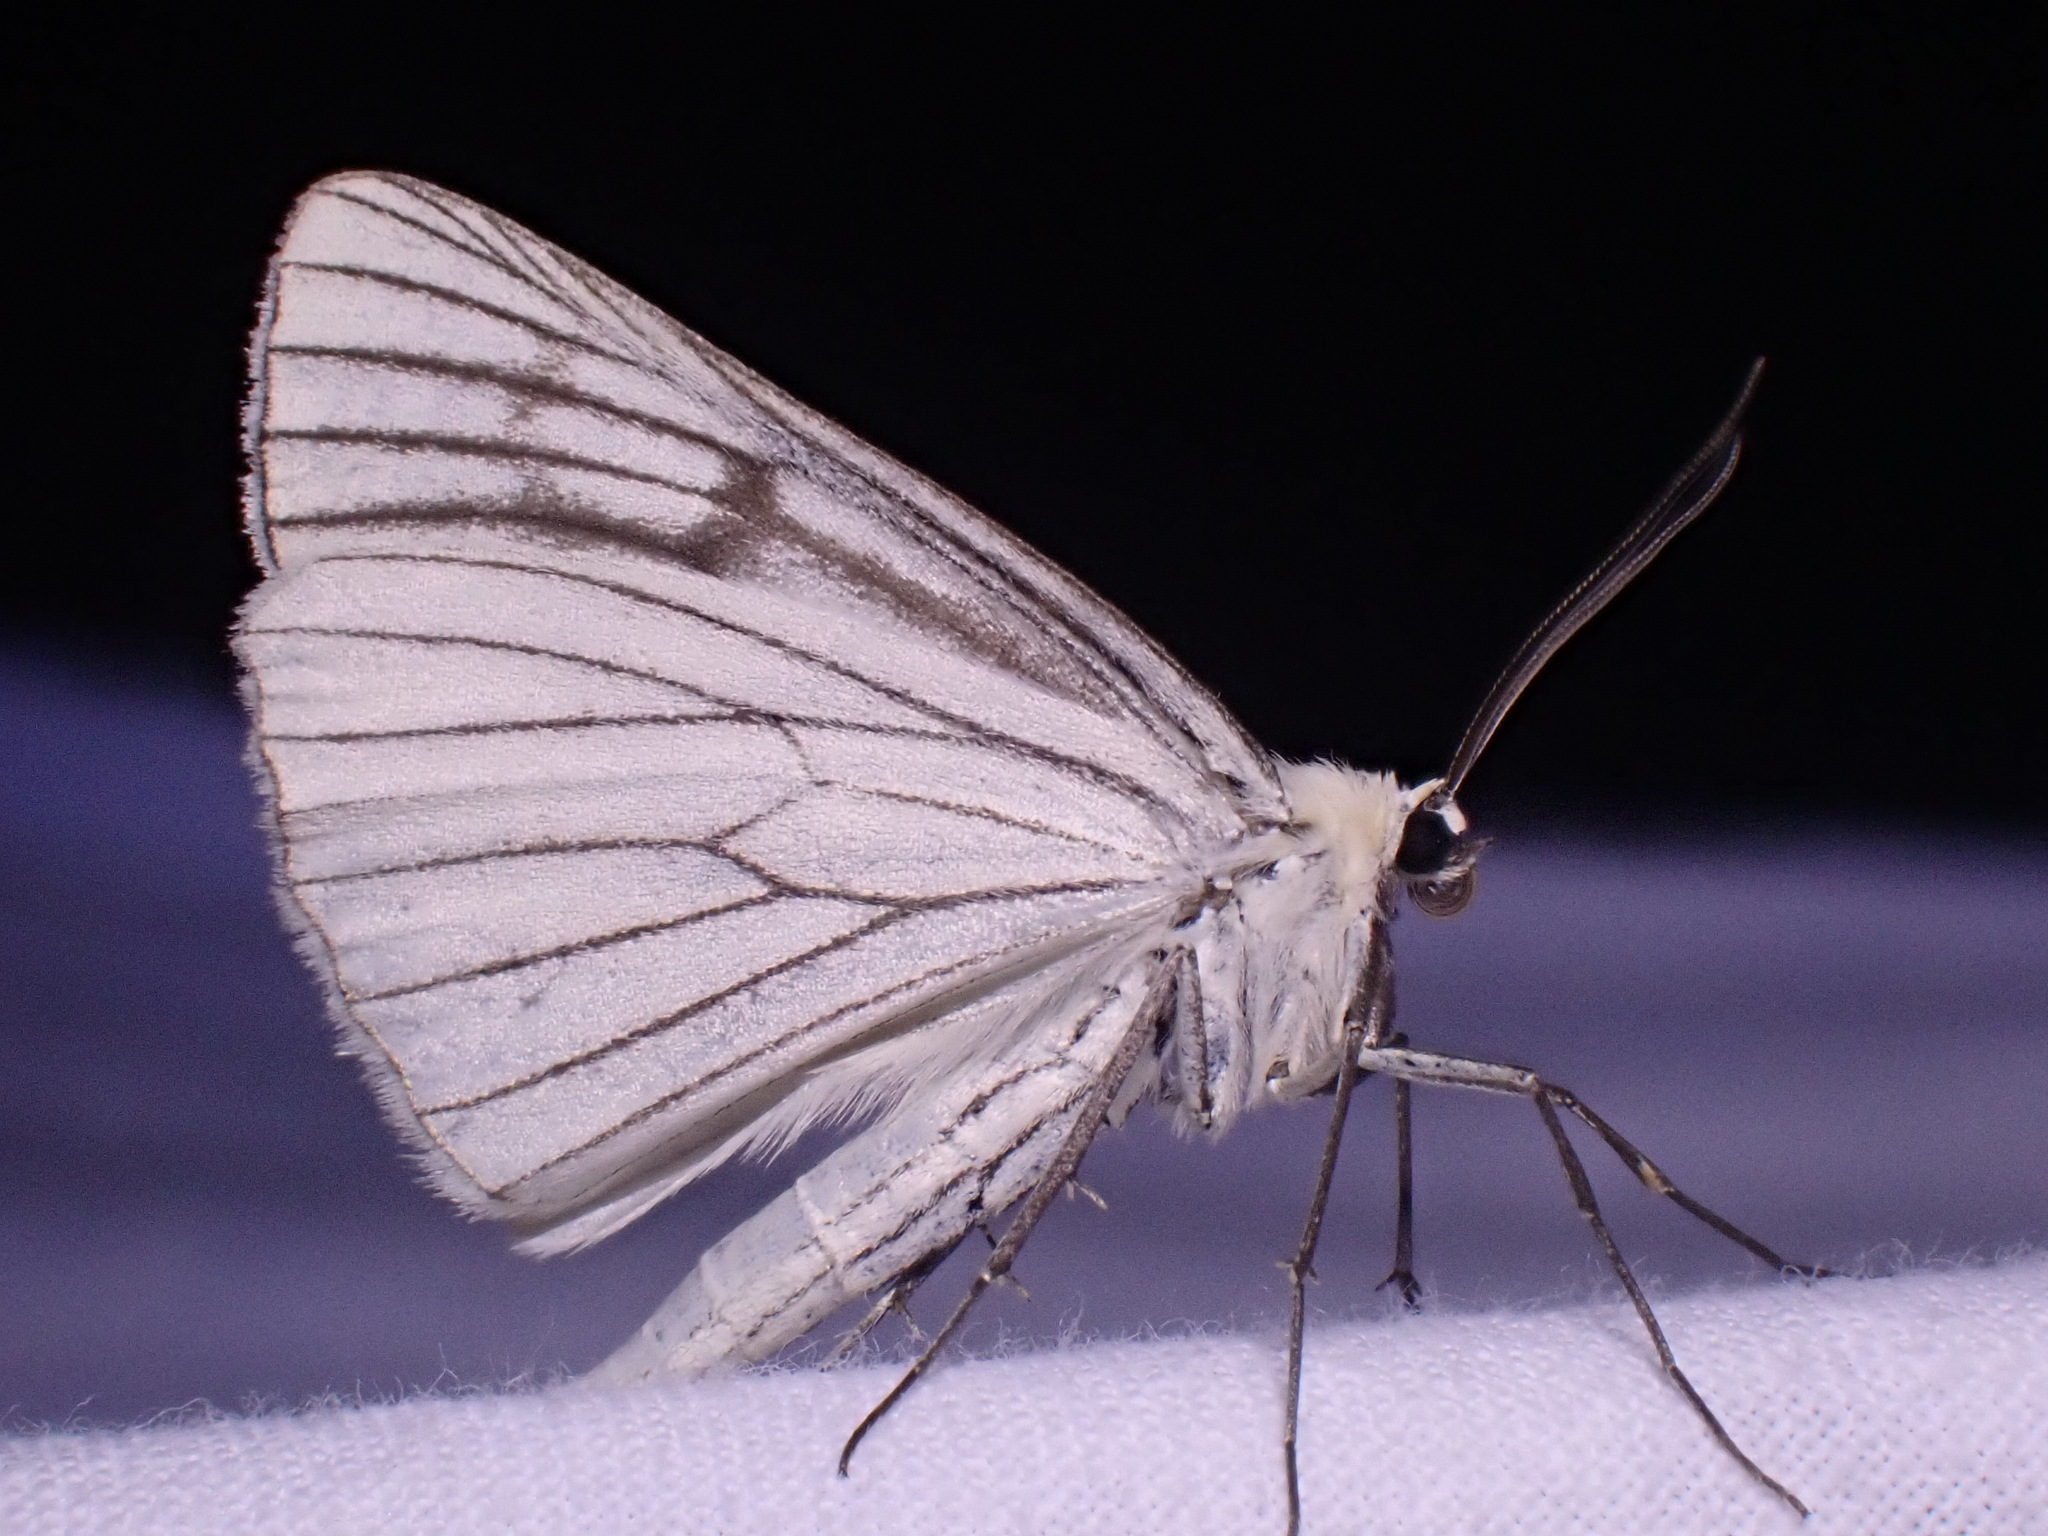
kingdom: Animalia
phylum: Arthropoda
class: Insecta
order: Lepidoptera
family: Geometridae
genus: Siona
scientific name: Siona lineata
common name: Black-veined moth
